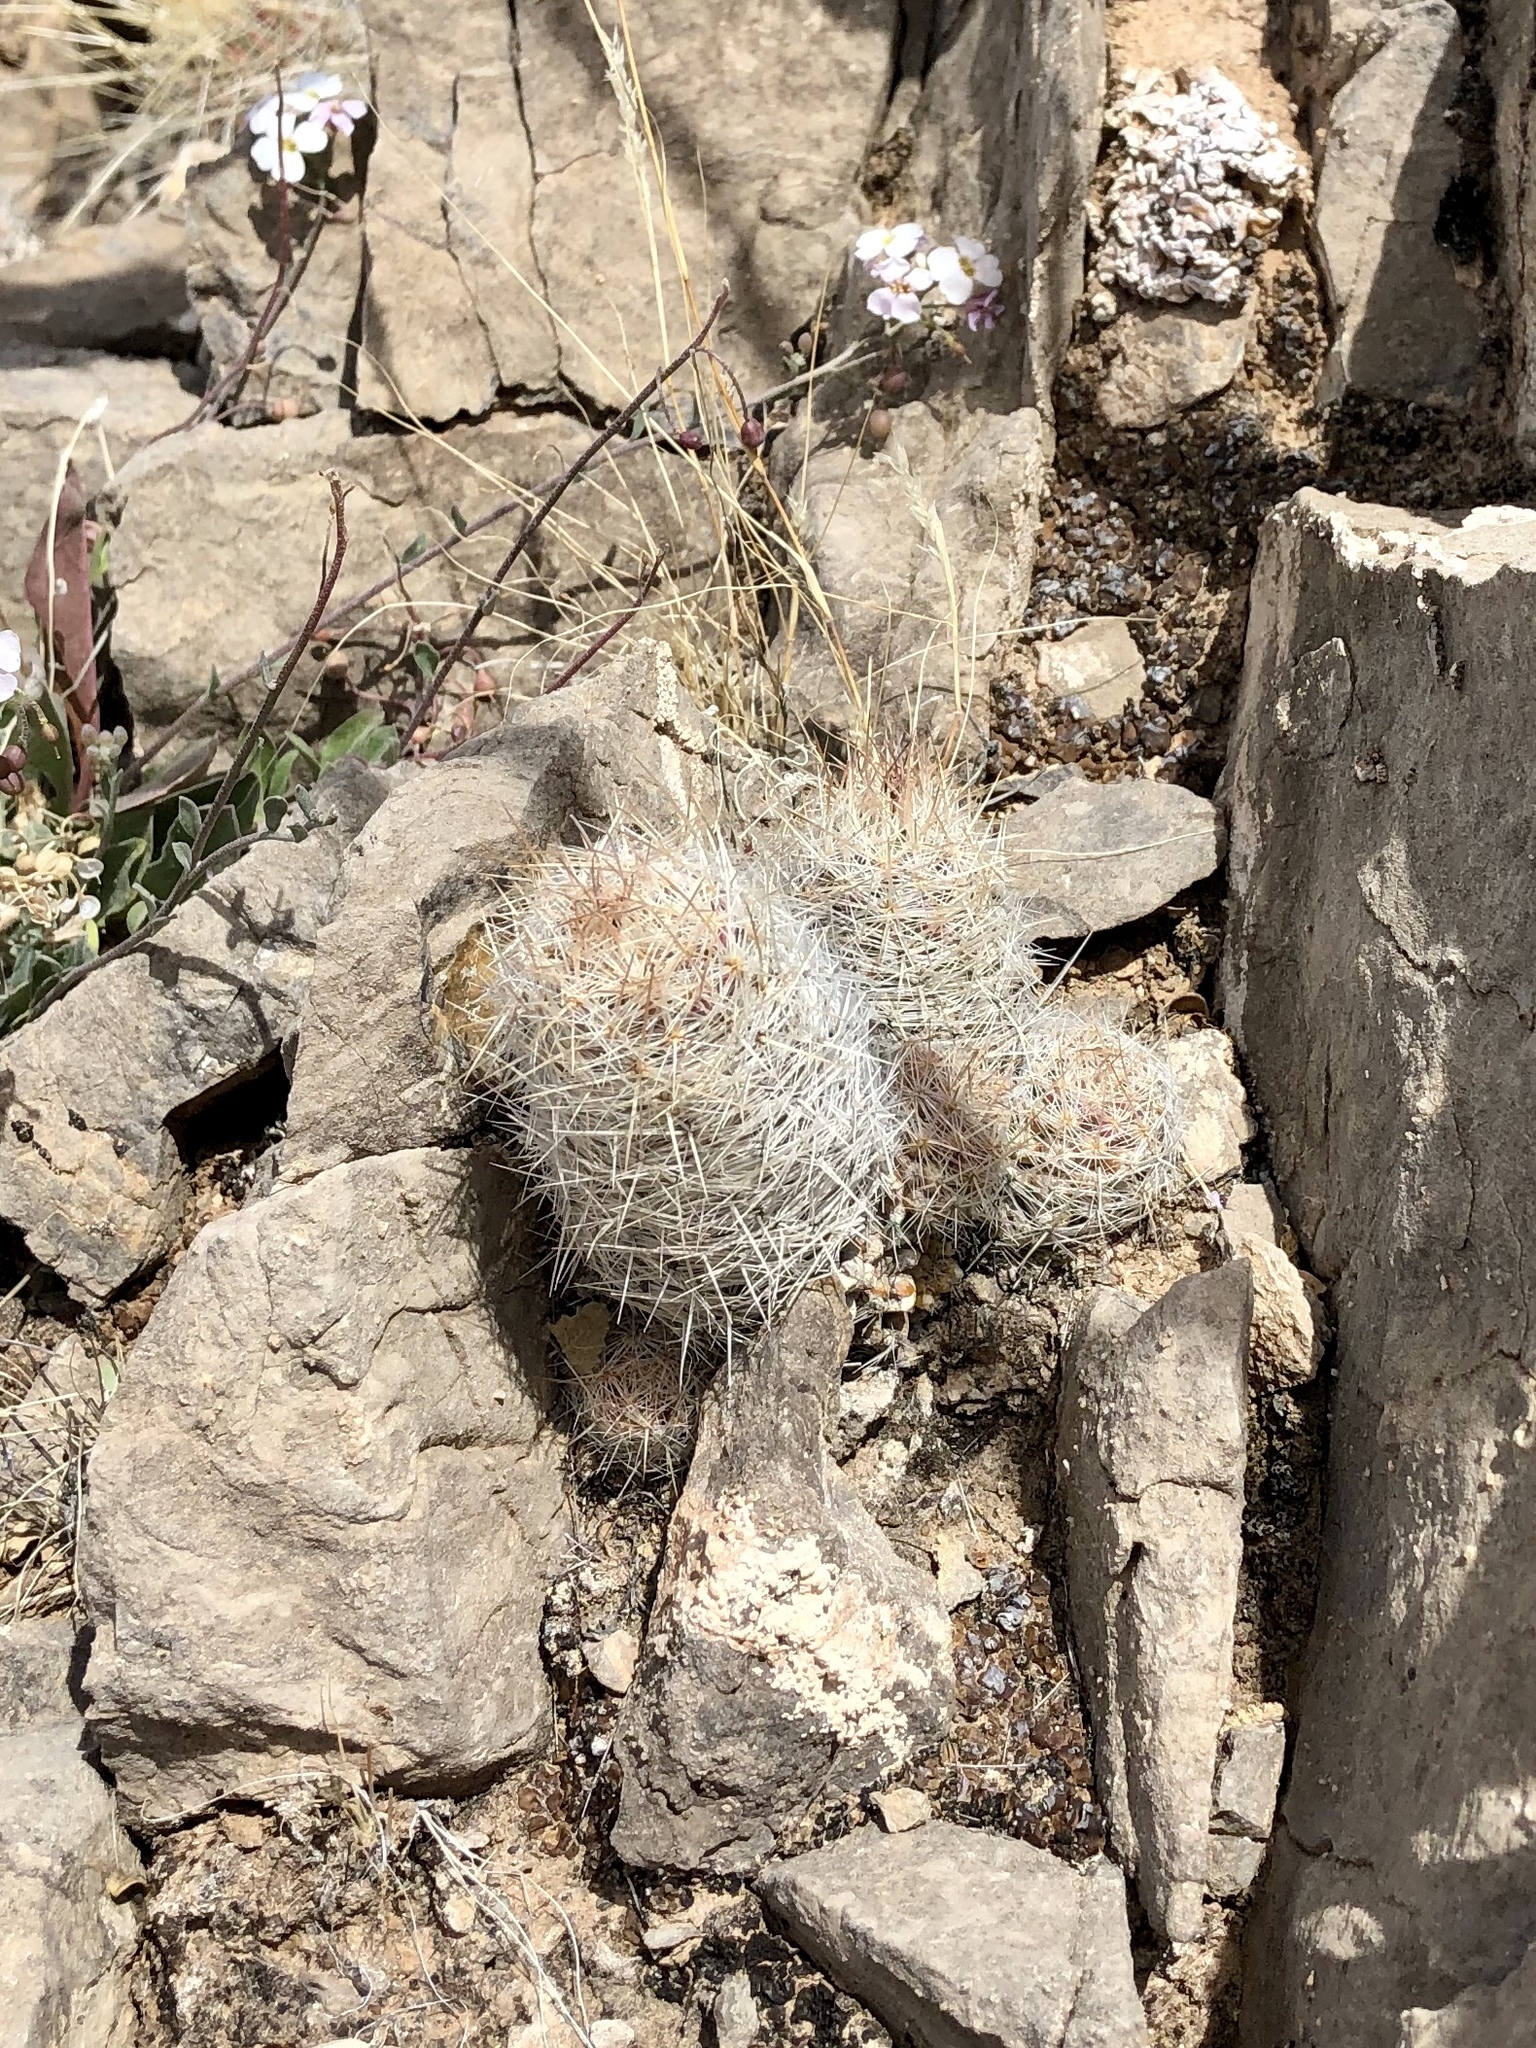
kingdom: Plantae
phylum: Tracheophyta
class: Magnoliopsida
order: Caryophyllales
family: Cactaceae
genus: Pelecyphora
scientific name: Pelecyphora tuberculosa
